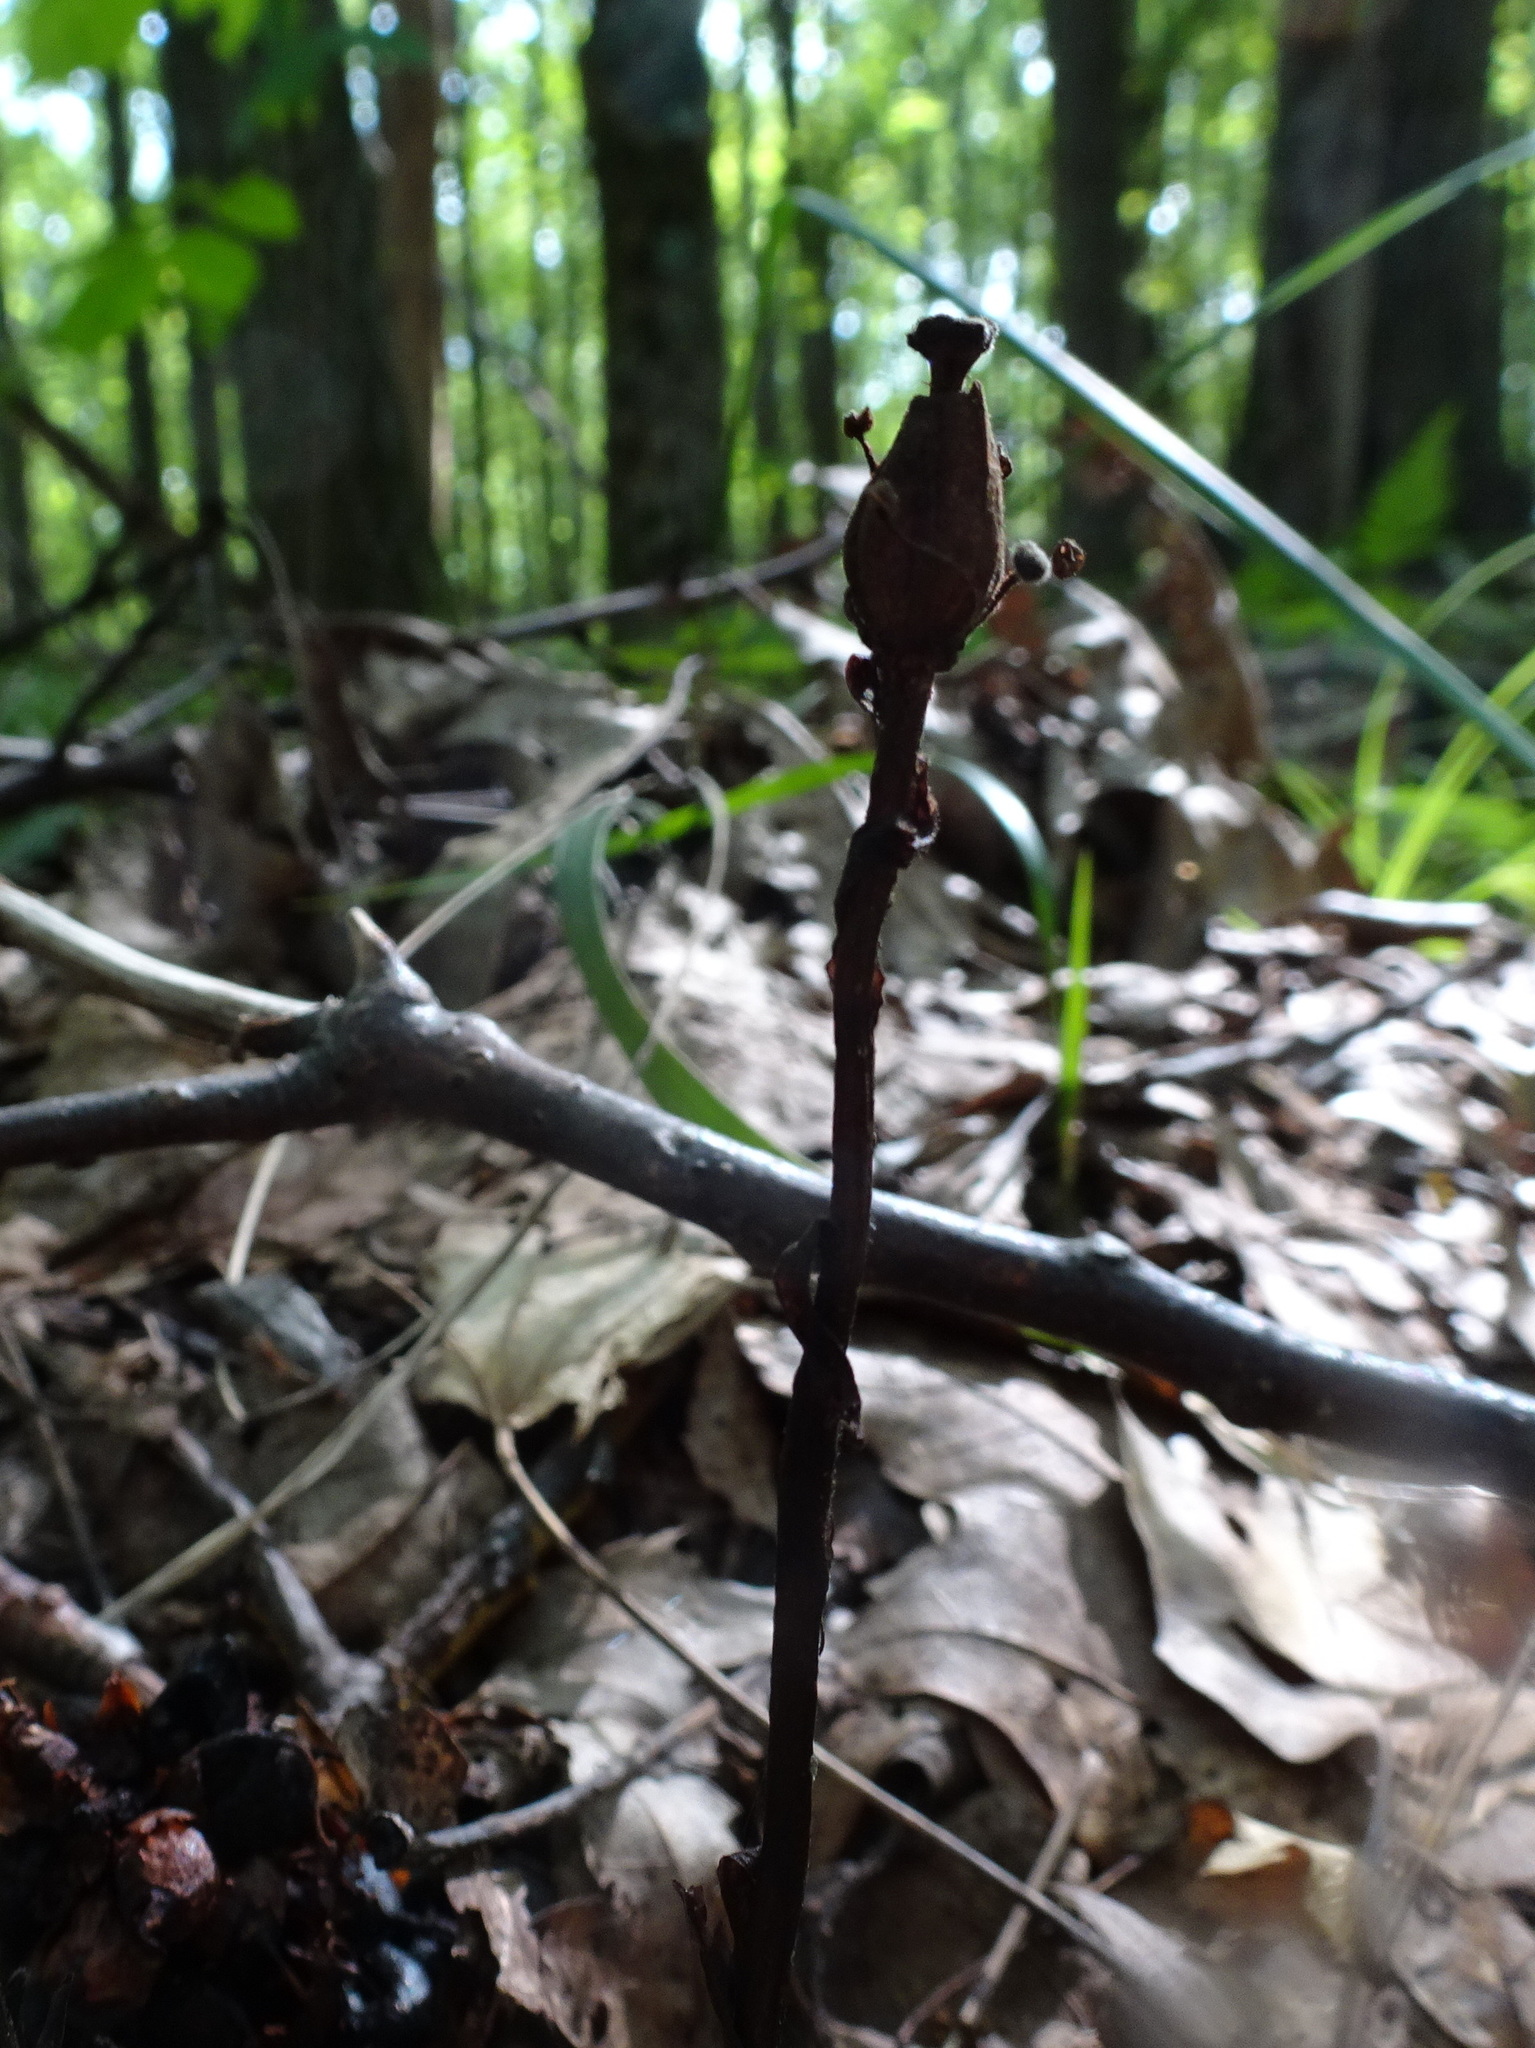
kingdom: Plantae
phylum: Tracheophyta
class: Magnoliopsida
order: Ericales
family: Ericaceae
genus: Monotropa
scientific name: Monotropa uniflora
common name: Convulsion root
